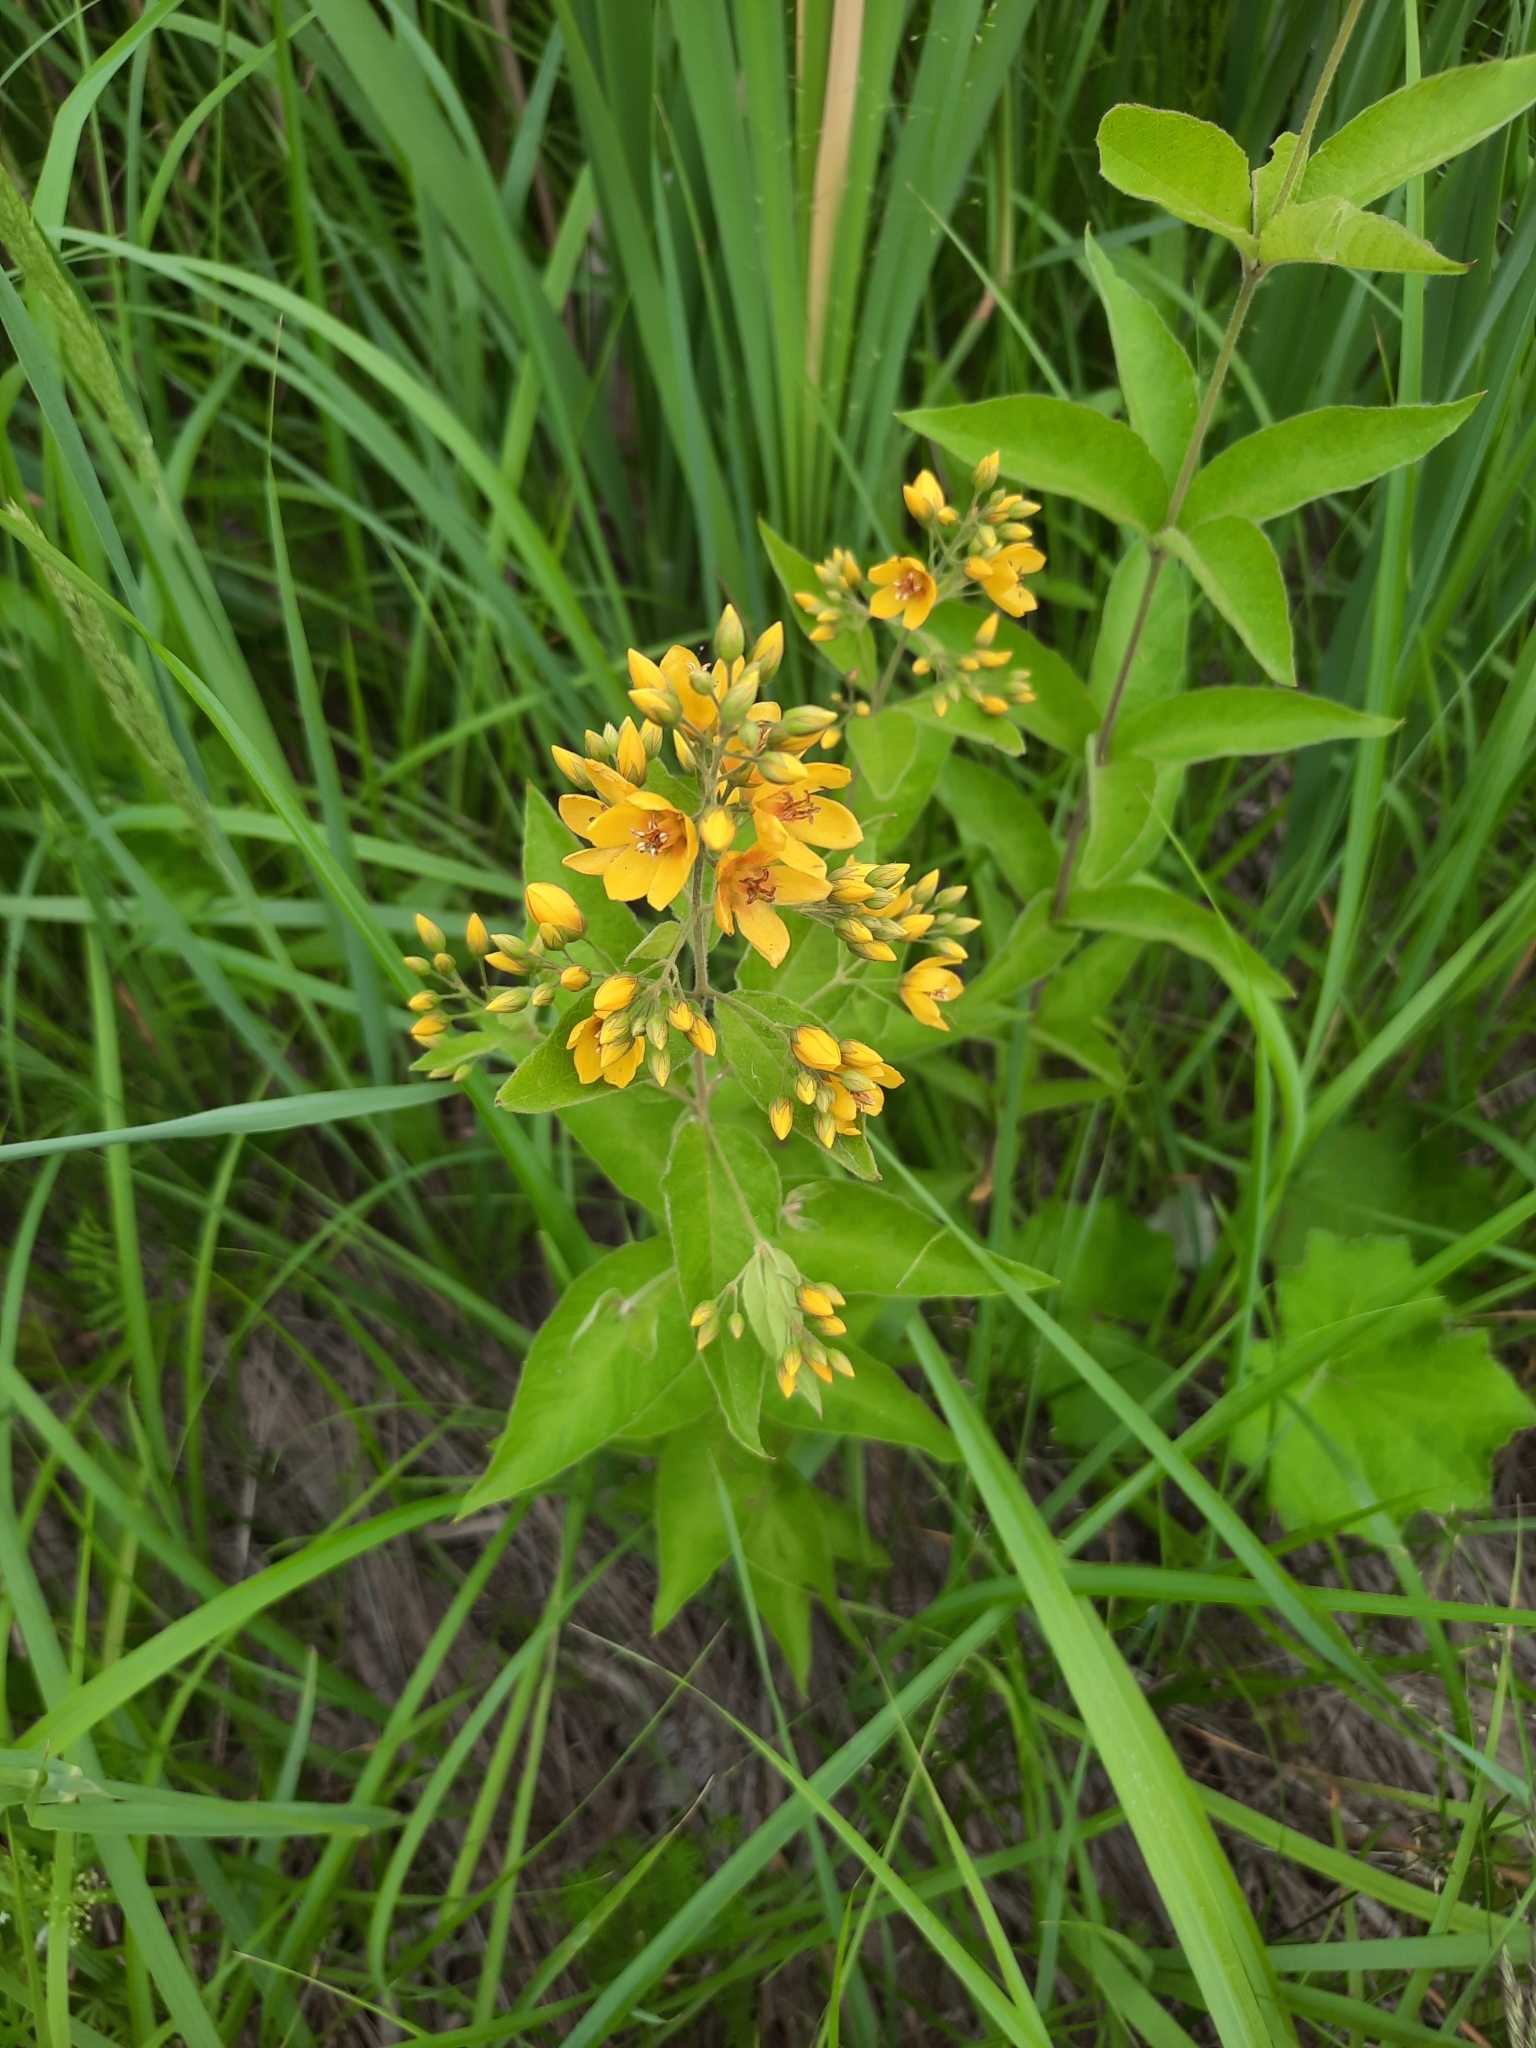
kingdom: Plantae
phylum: Tracheophyta
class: Magnoliopsida
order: Ericales
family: Primulaceae
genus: Lysimachia
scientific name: Lysimachia vulgaris
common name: Yellow loosestrife
